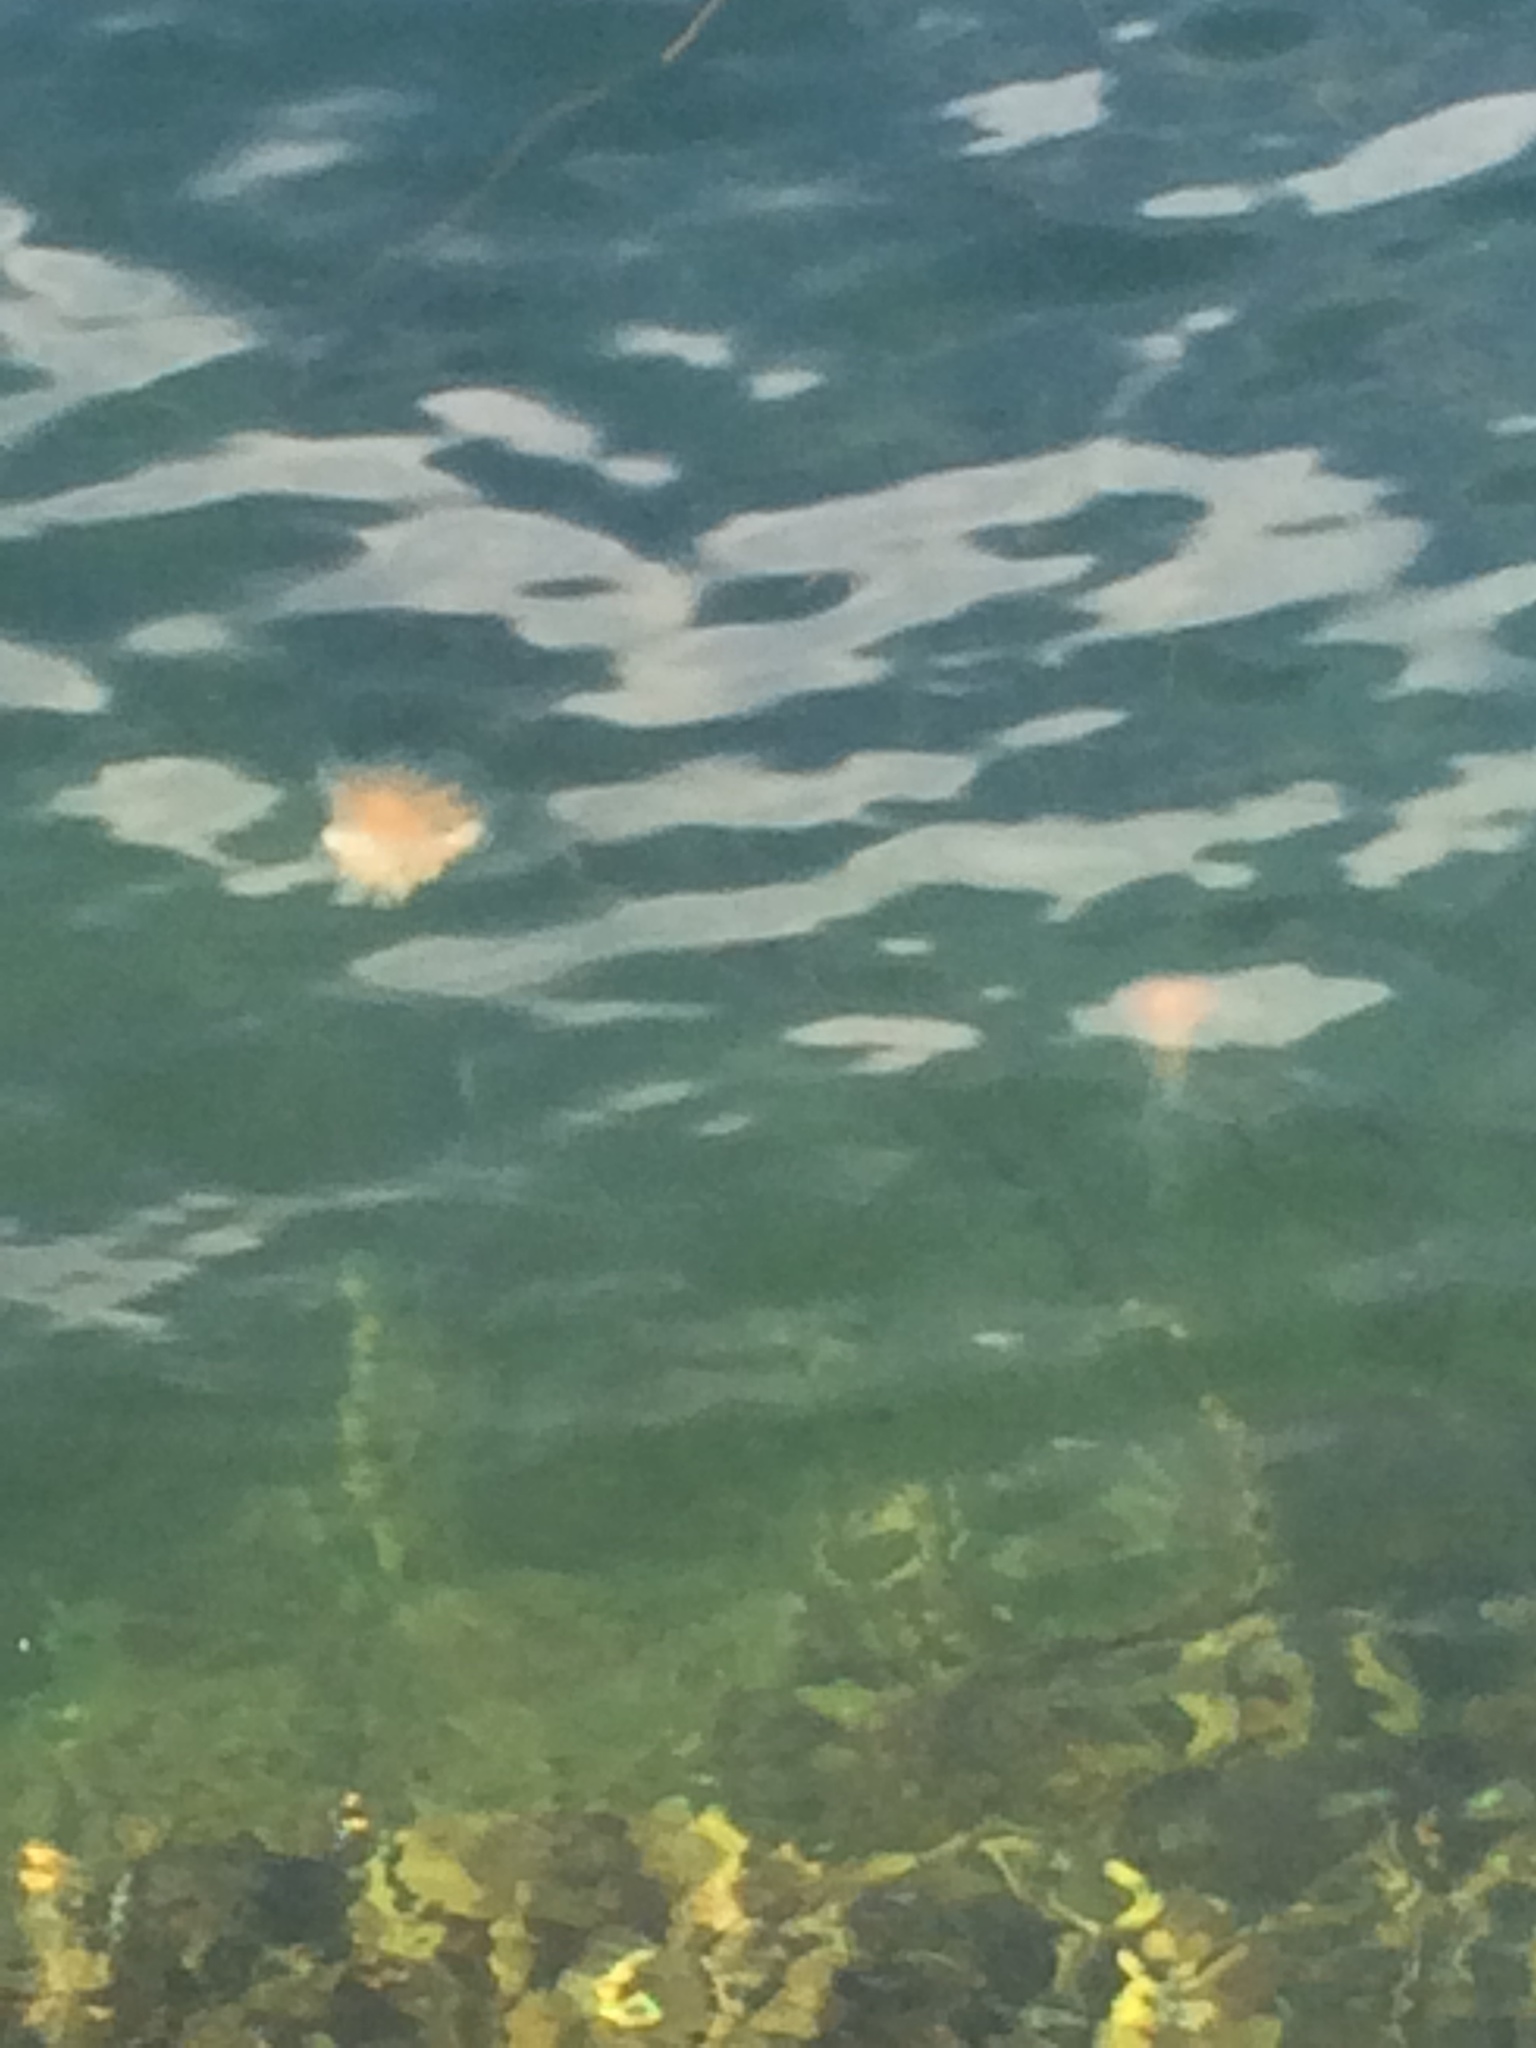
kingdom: Animalia
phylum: Cnidaria
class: Scyphozoa
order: Semaeostomeae
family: Cyaneidae
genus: Cyanea
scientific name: Cyanea capillata
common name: Lion's mane jellyfish
